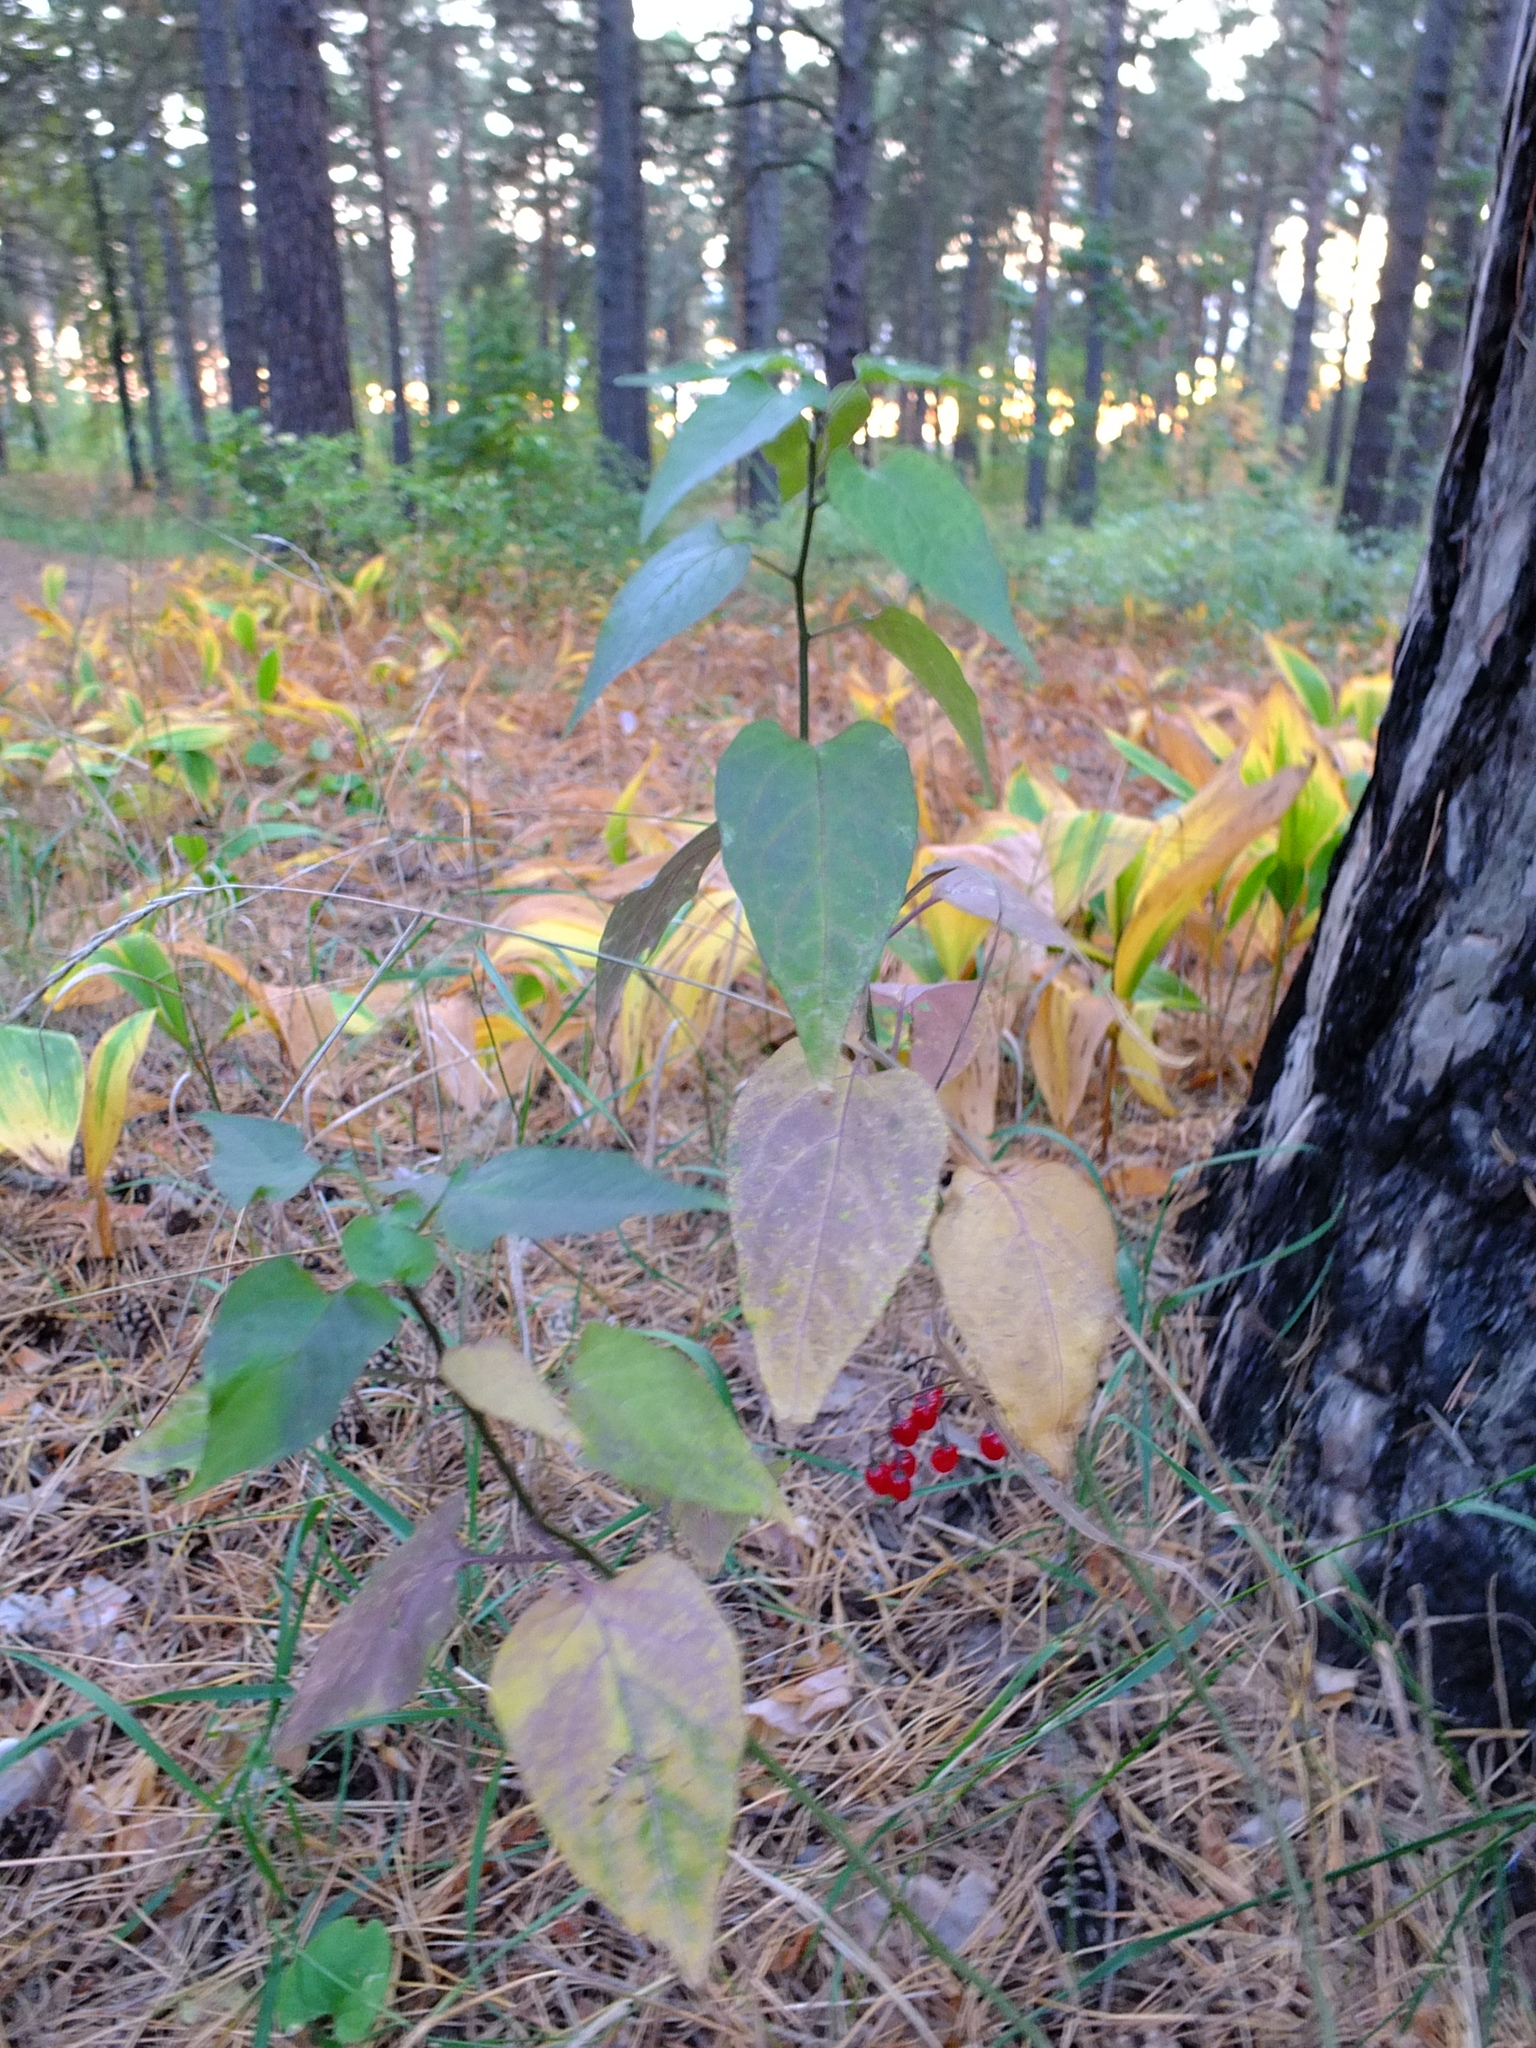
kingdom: Plantae
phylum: Tracheophyta
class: Magnoliopsida
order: Solanales
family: Solanaceae
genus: Solanum
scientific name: Solanum dulcamara
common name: Climbing nightshade
